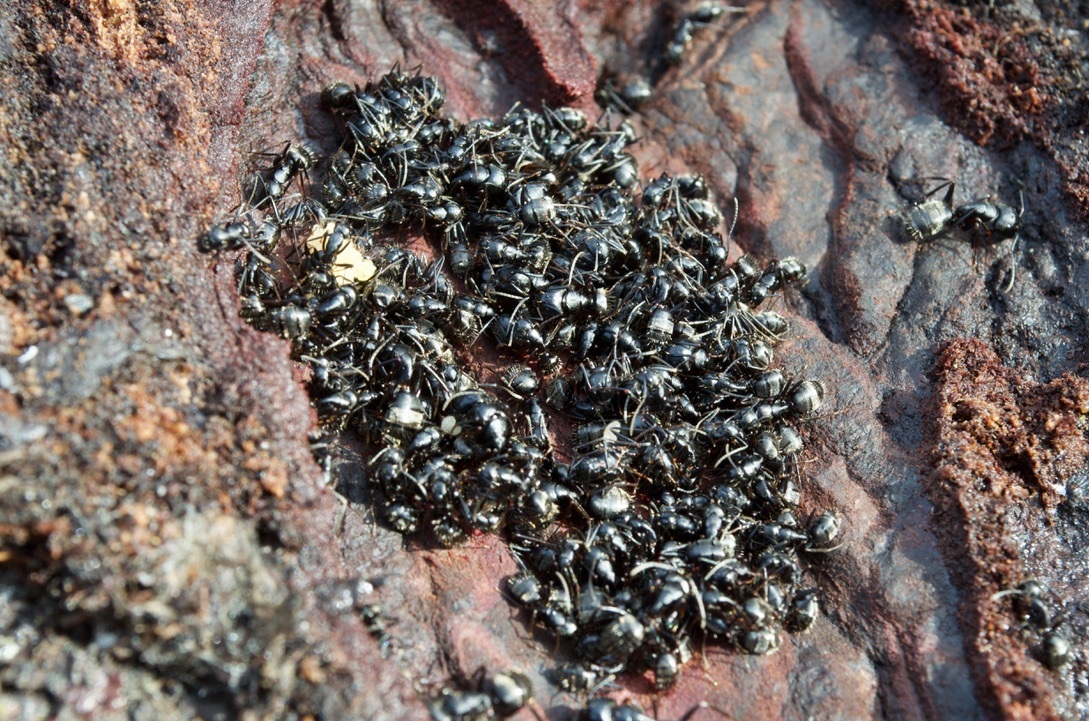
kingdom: Animalia
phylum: Arthropoda
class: Insecta
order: Hymenoptera
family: Formicidae
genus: Camponotus
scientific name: Camponotus pennsylvanicus
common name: Black carpenter ant
